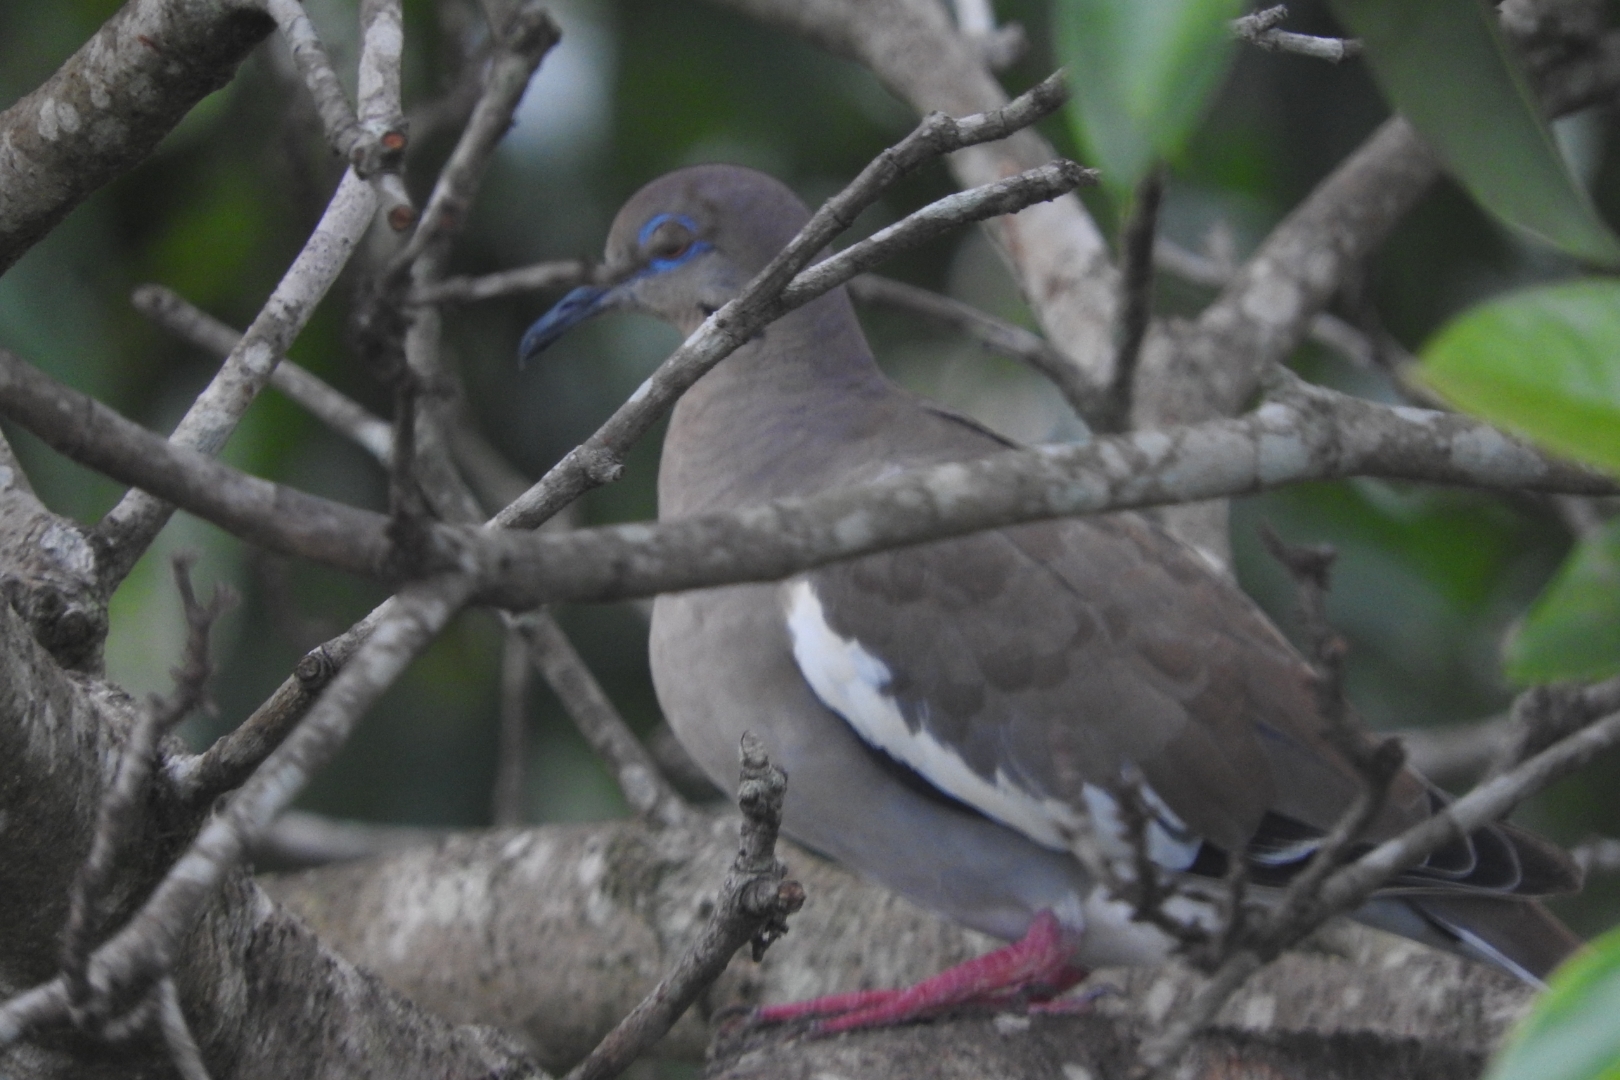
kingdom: Animalia
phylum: Chordata
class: Aves
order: Columbiformes
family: Columbidae
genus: Zenaida
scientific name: Zenaida asiatica
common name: White-winged dove
